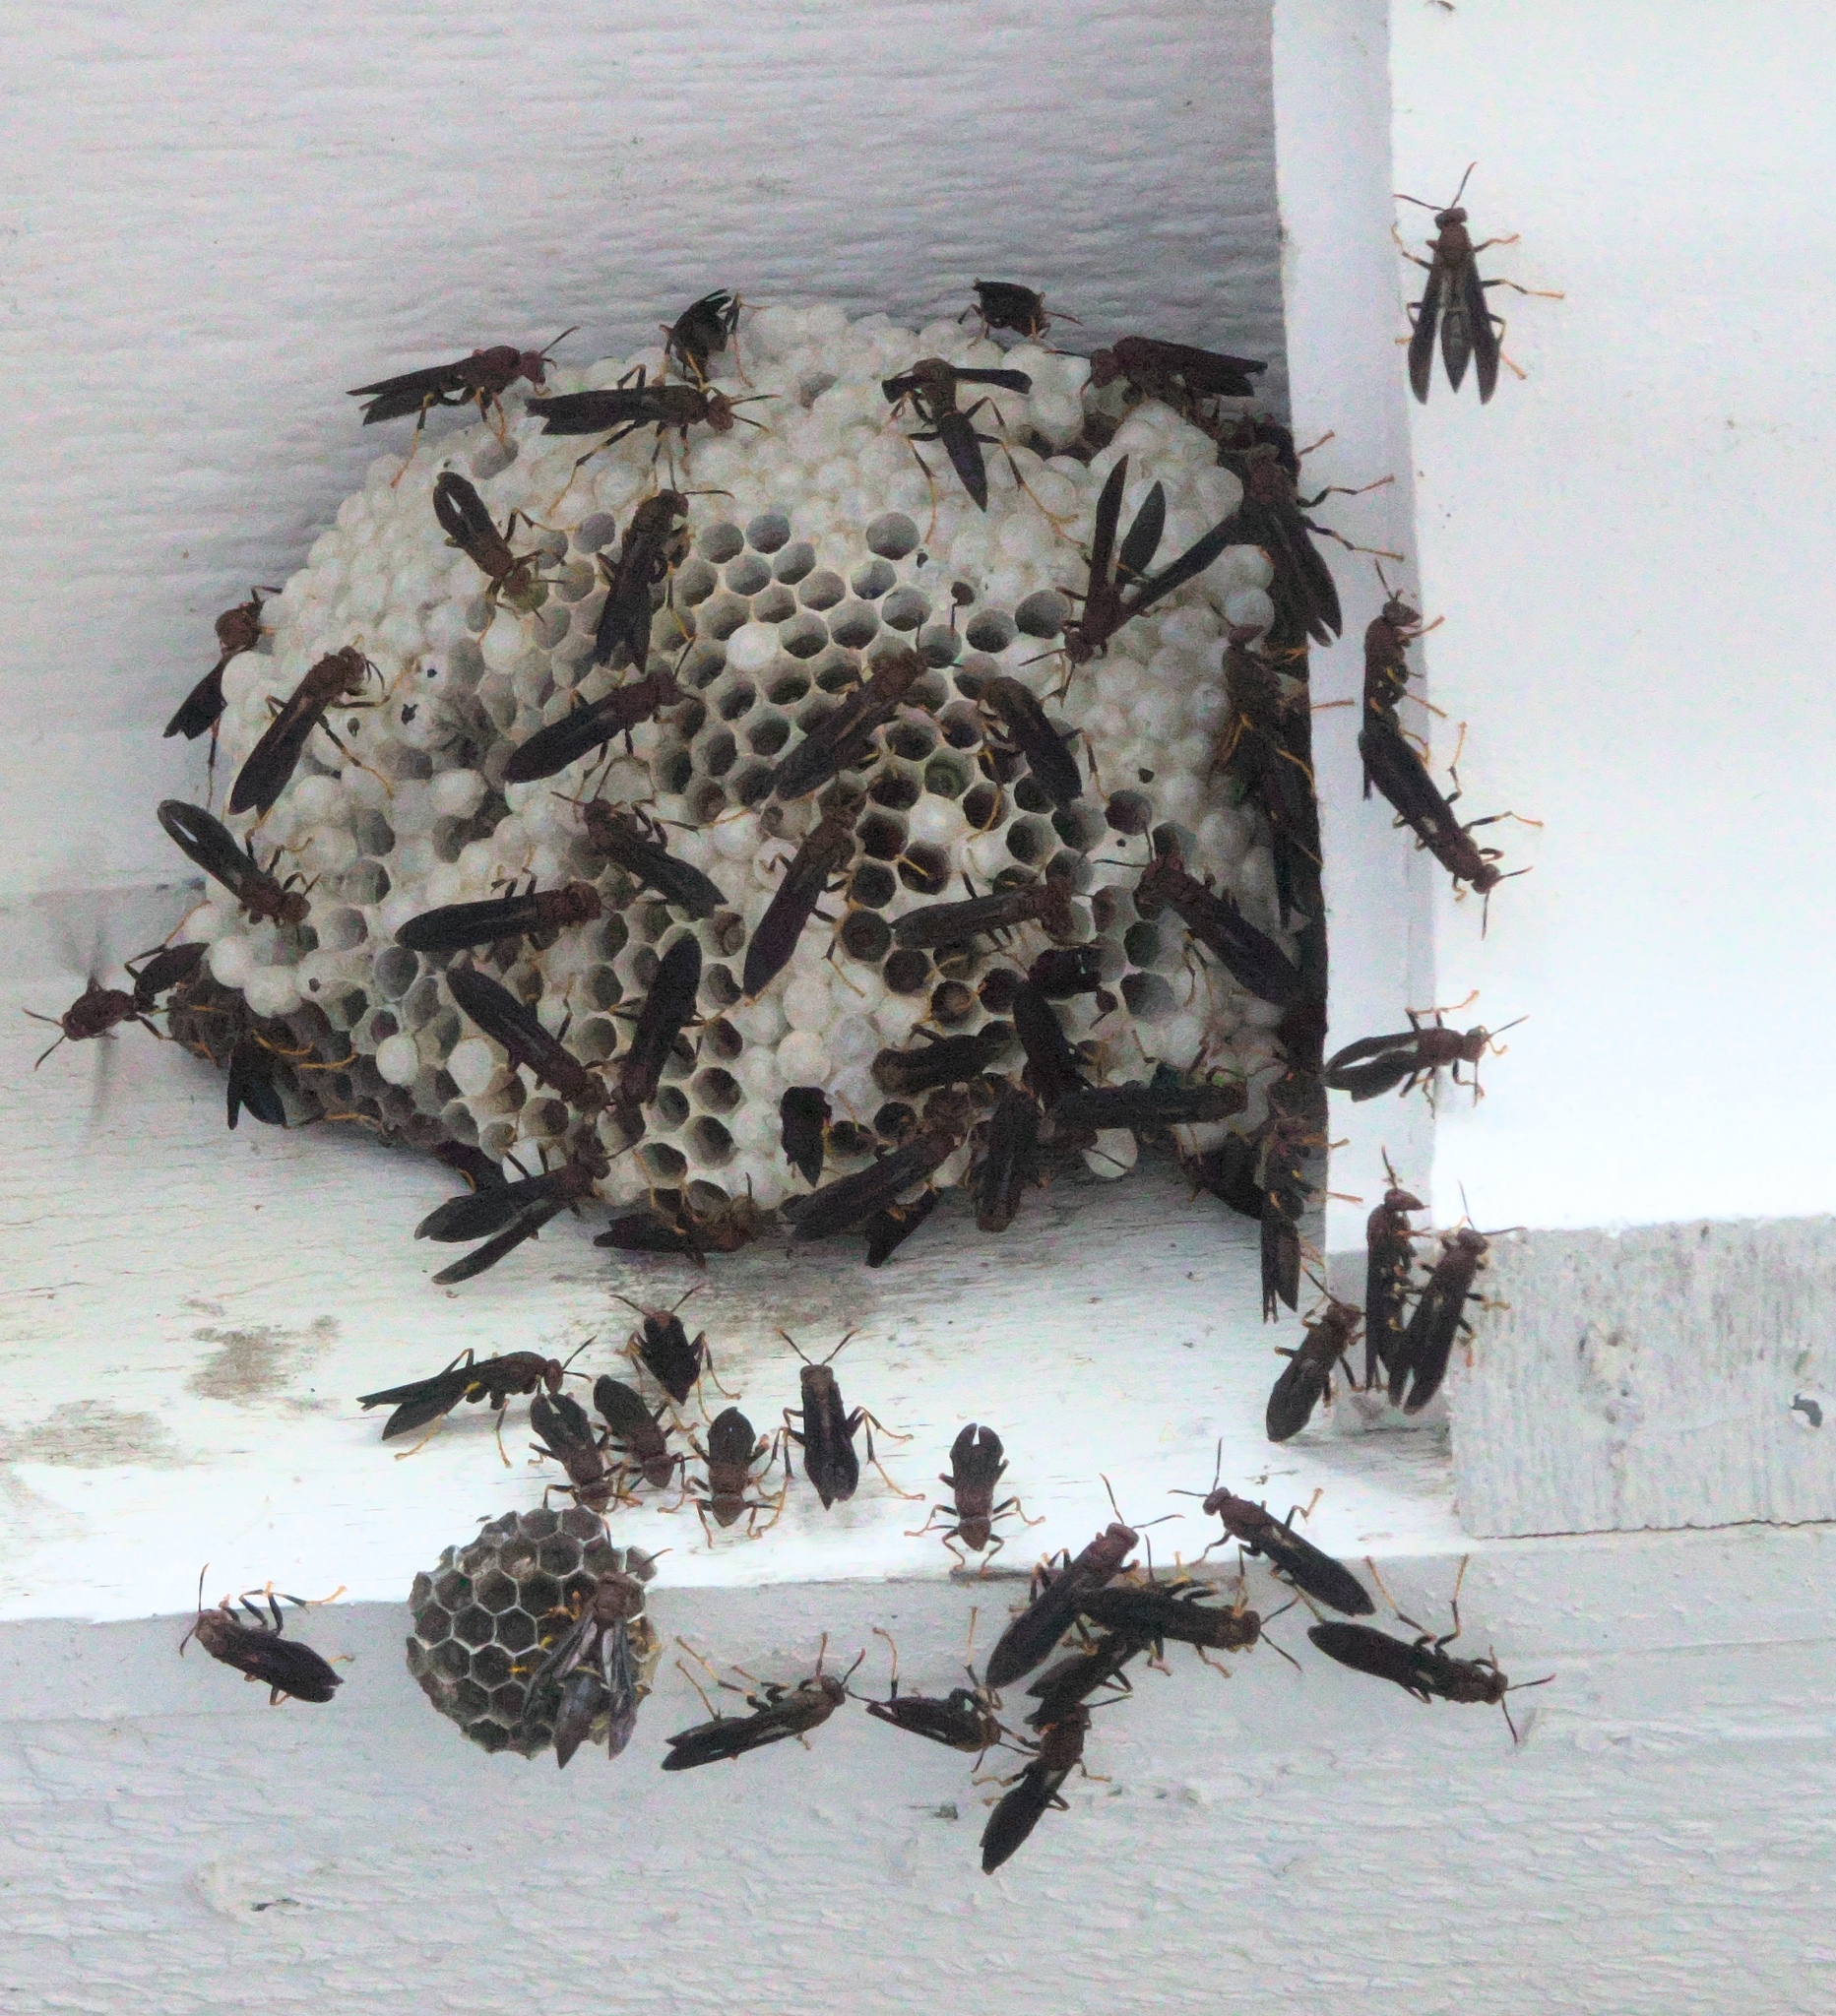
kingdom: Animalia
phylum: Arthropoda
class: Insecta
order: Hymenoptera
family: Eumenidae
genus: Polistes
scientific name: Polistes annularis
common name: Ringed paper wasp
